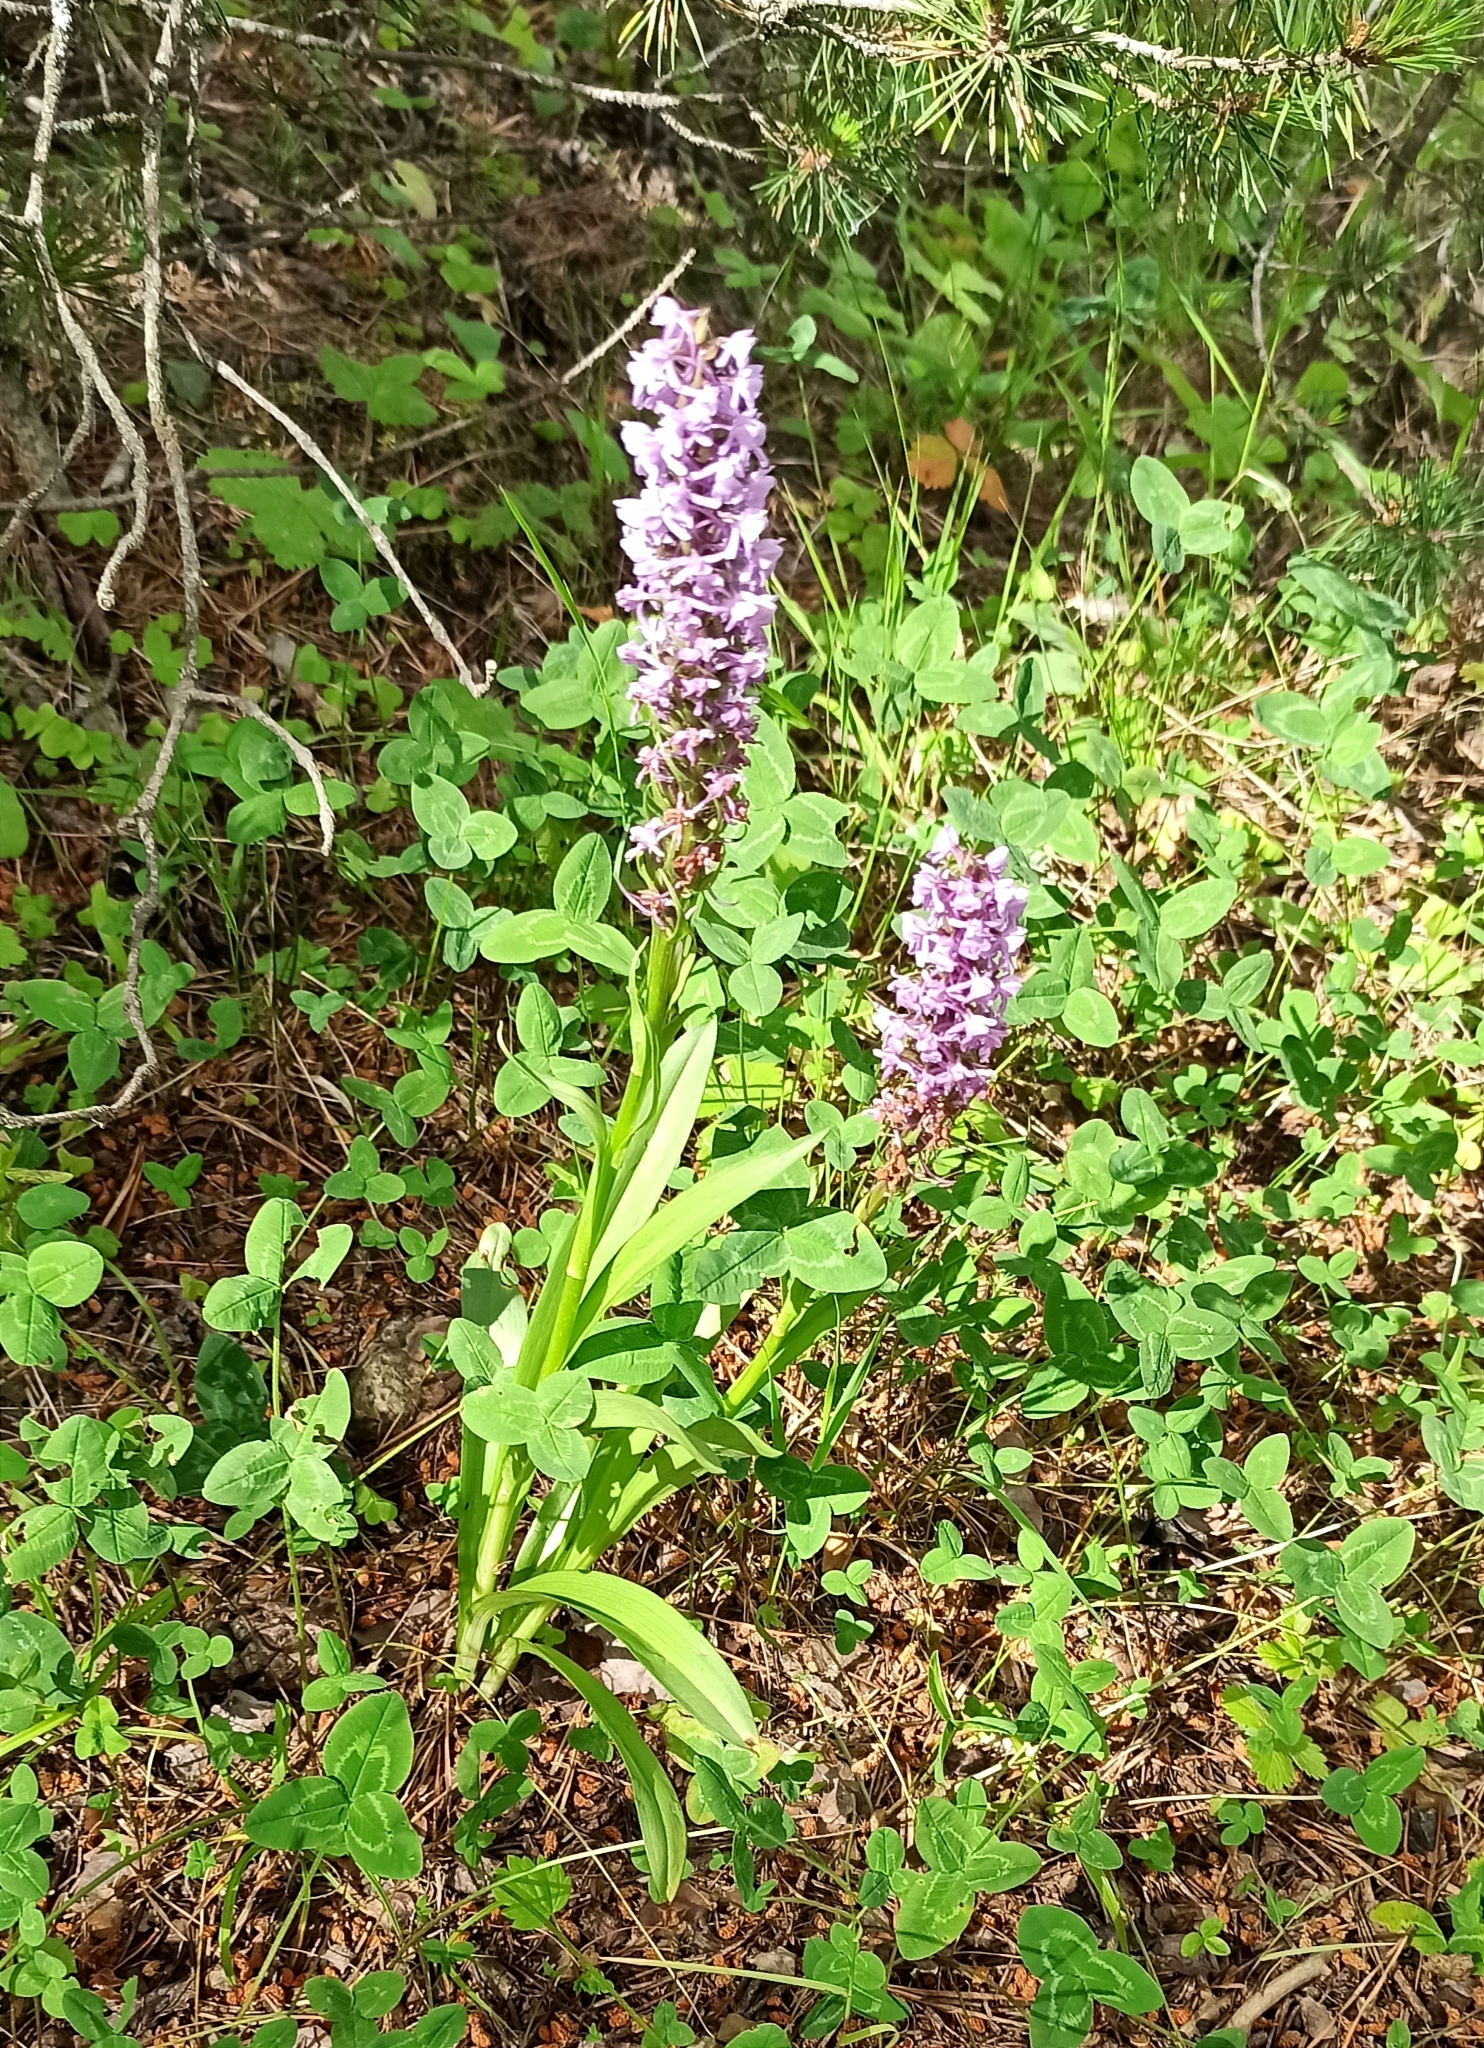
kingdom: Plantae
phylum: Tracheophyta
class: Liliopsida
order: Asparagales
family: Orchidaceae
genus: Gymnadenia
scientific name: Gymnadenia conopsea
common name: Fragrant orchid
